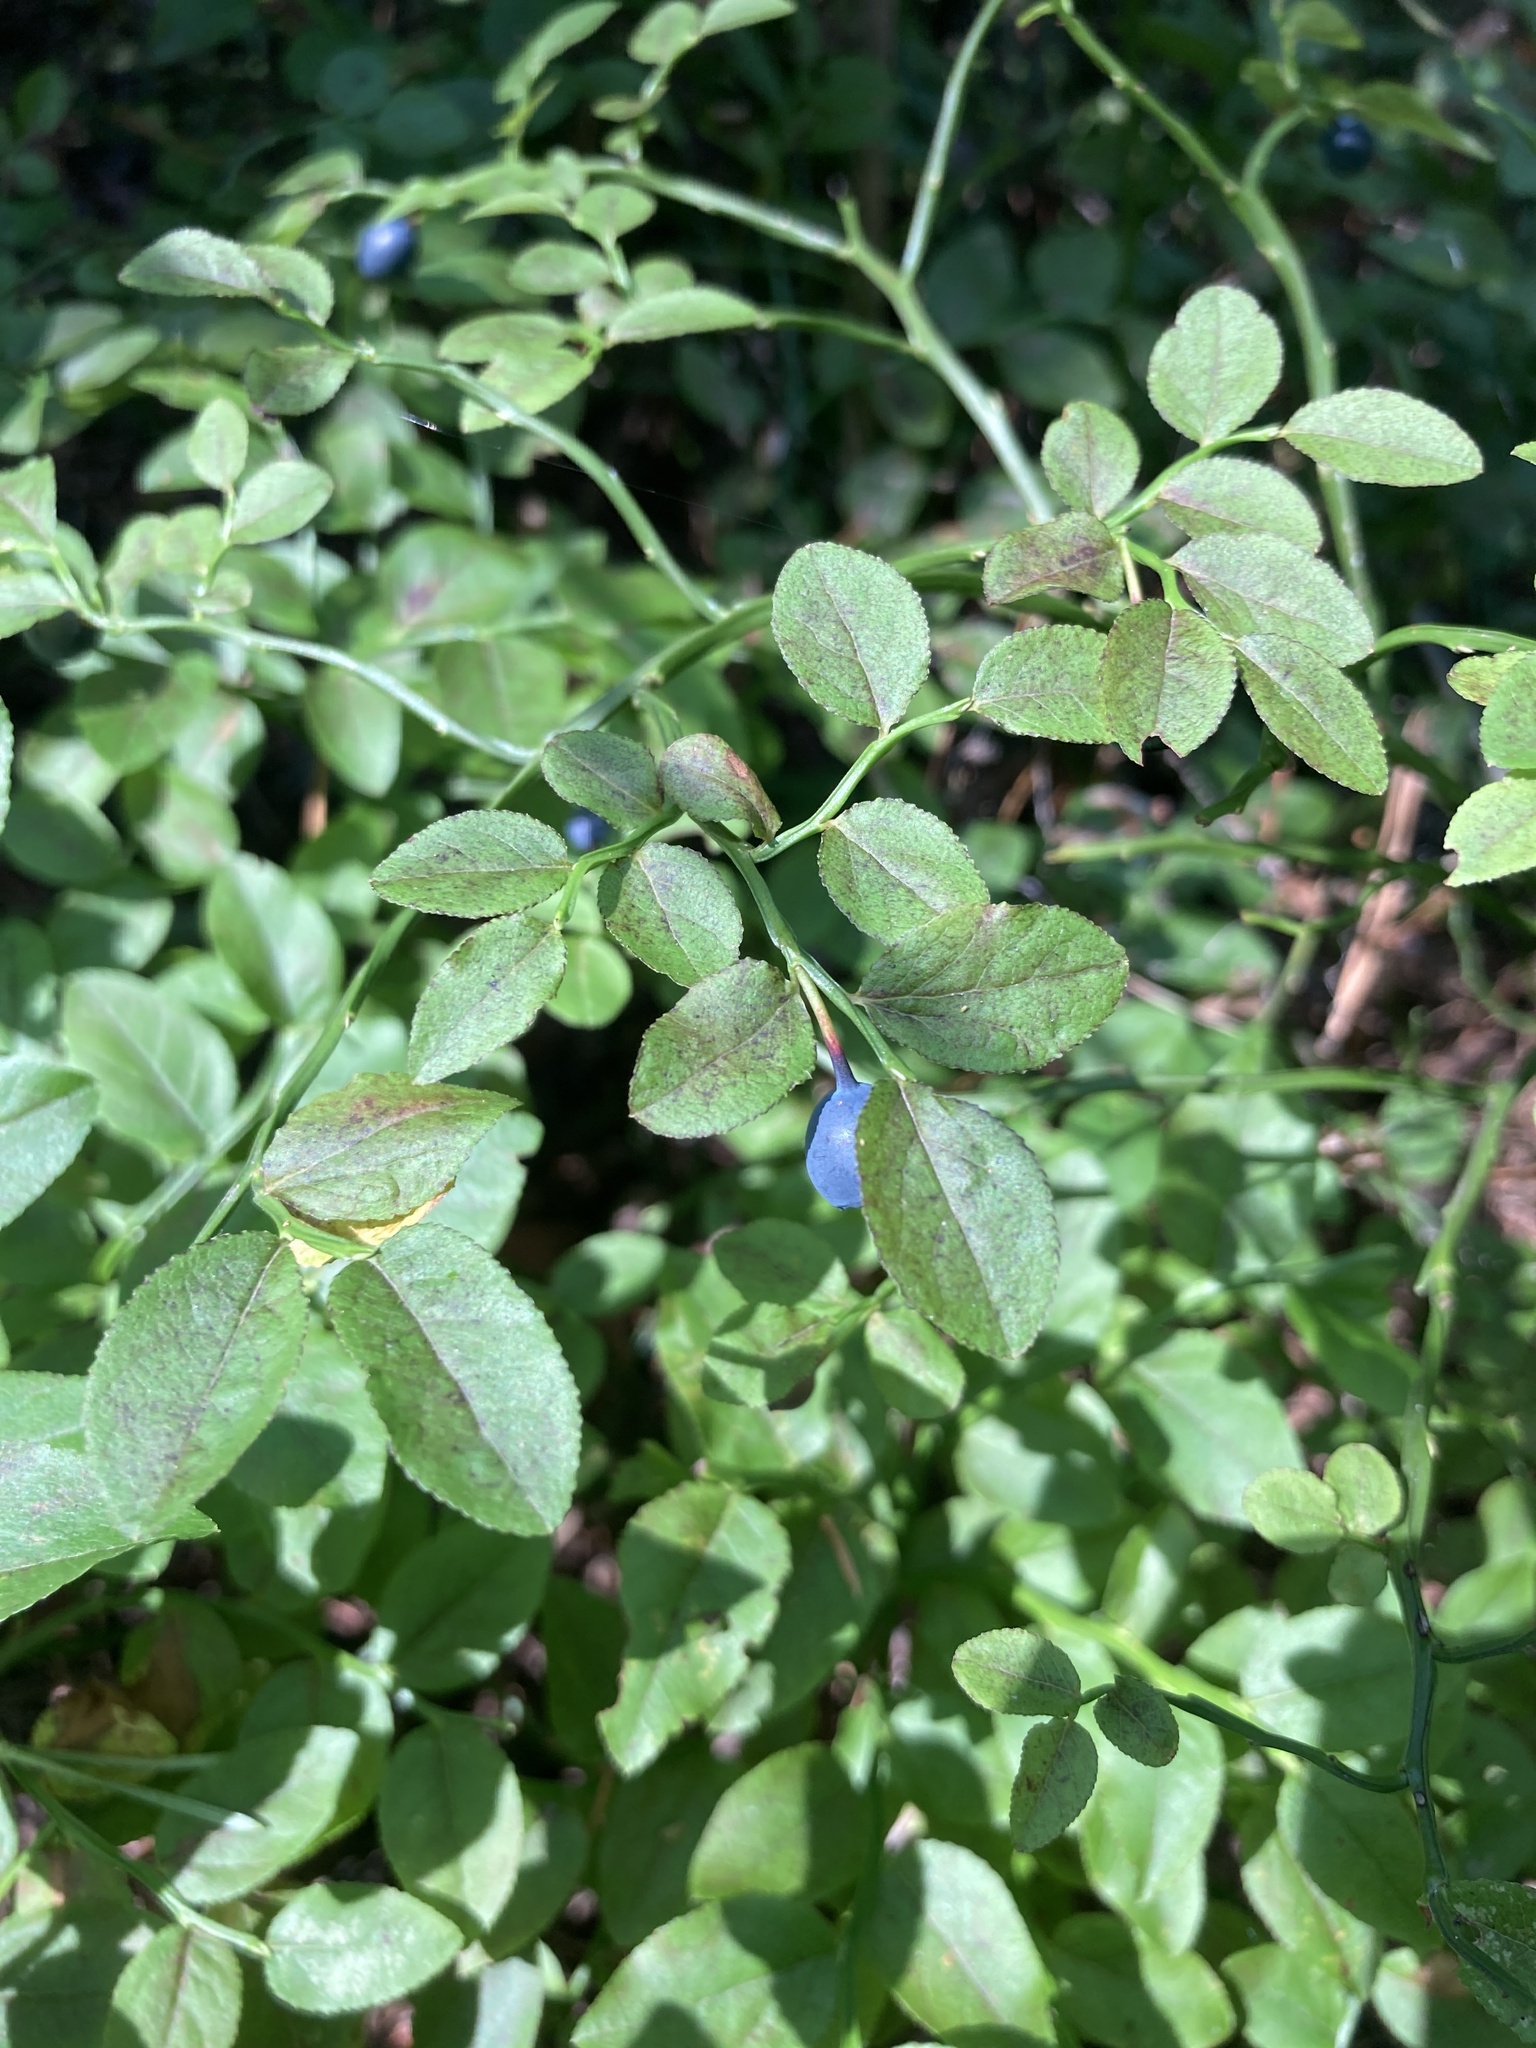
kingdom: Plantae
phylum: Tracheophyta
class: Magnoliopsida
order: Ericales
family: Ericaceae
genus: Vaccinium
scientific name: Vaccinium myrtillus
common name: Bilberry
